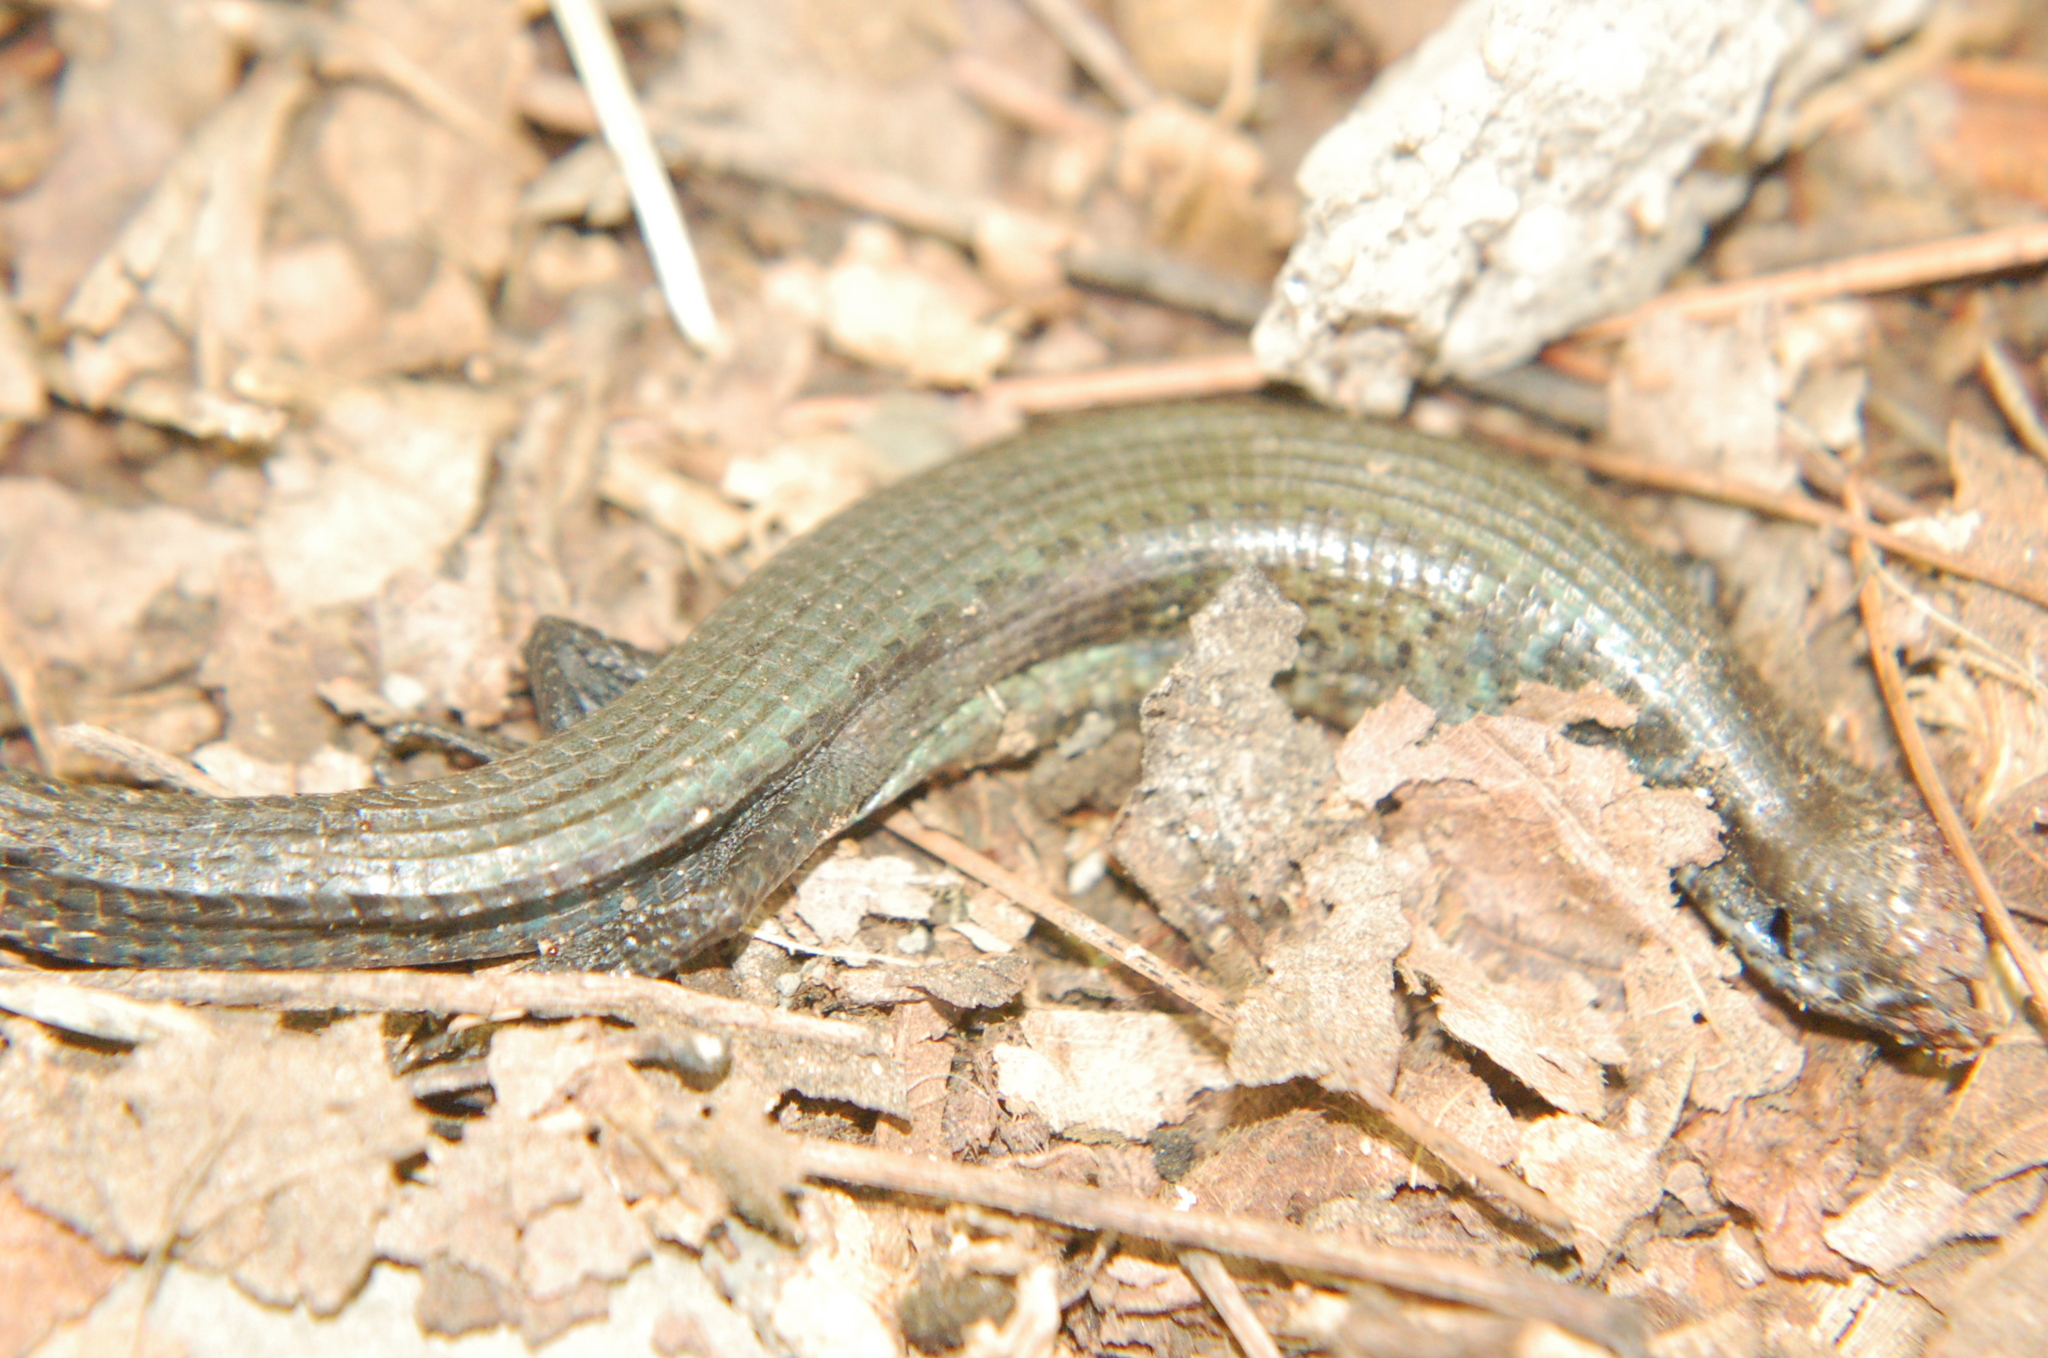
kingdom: Animalia
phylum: Chordata
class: Squamata
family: Anguidae
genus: Abronia
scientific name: Abronia moreletii
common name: Morelet's alligator lizard
